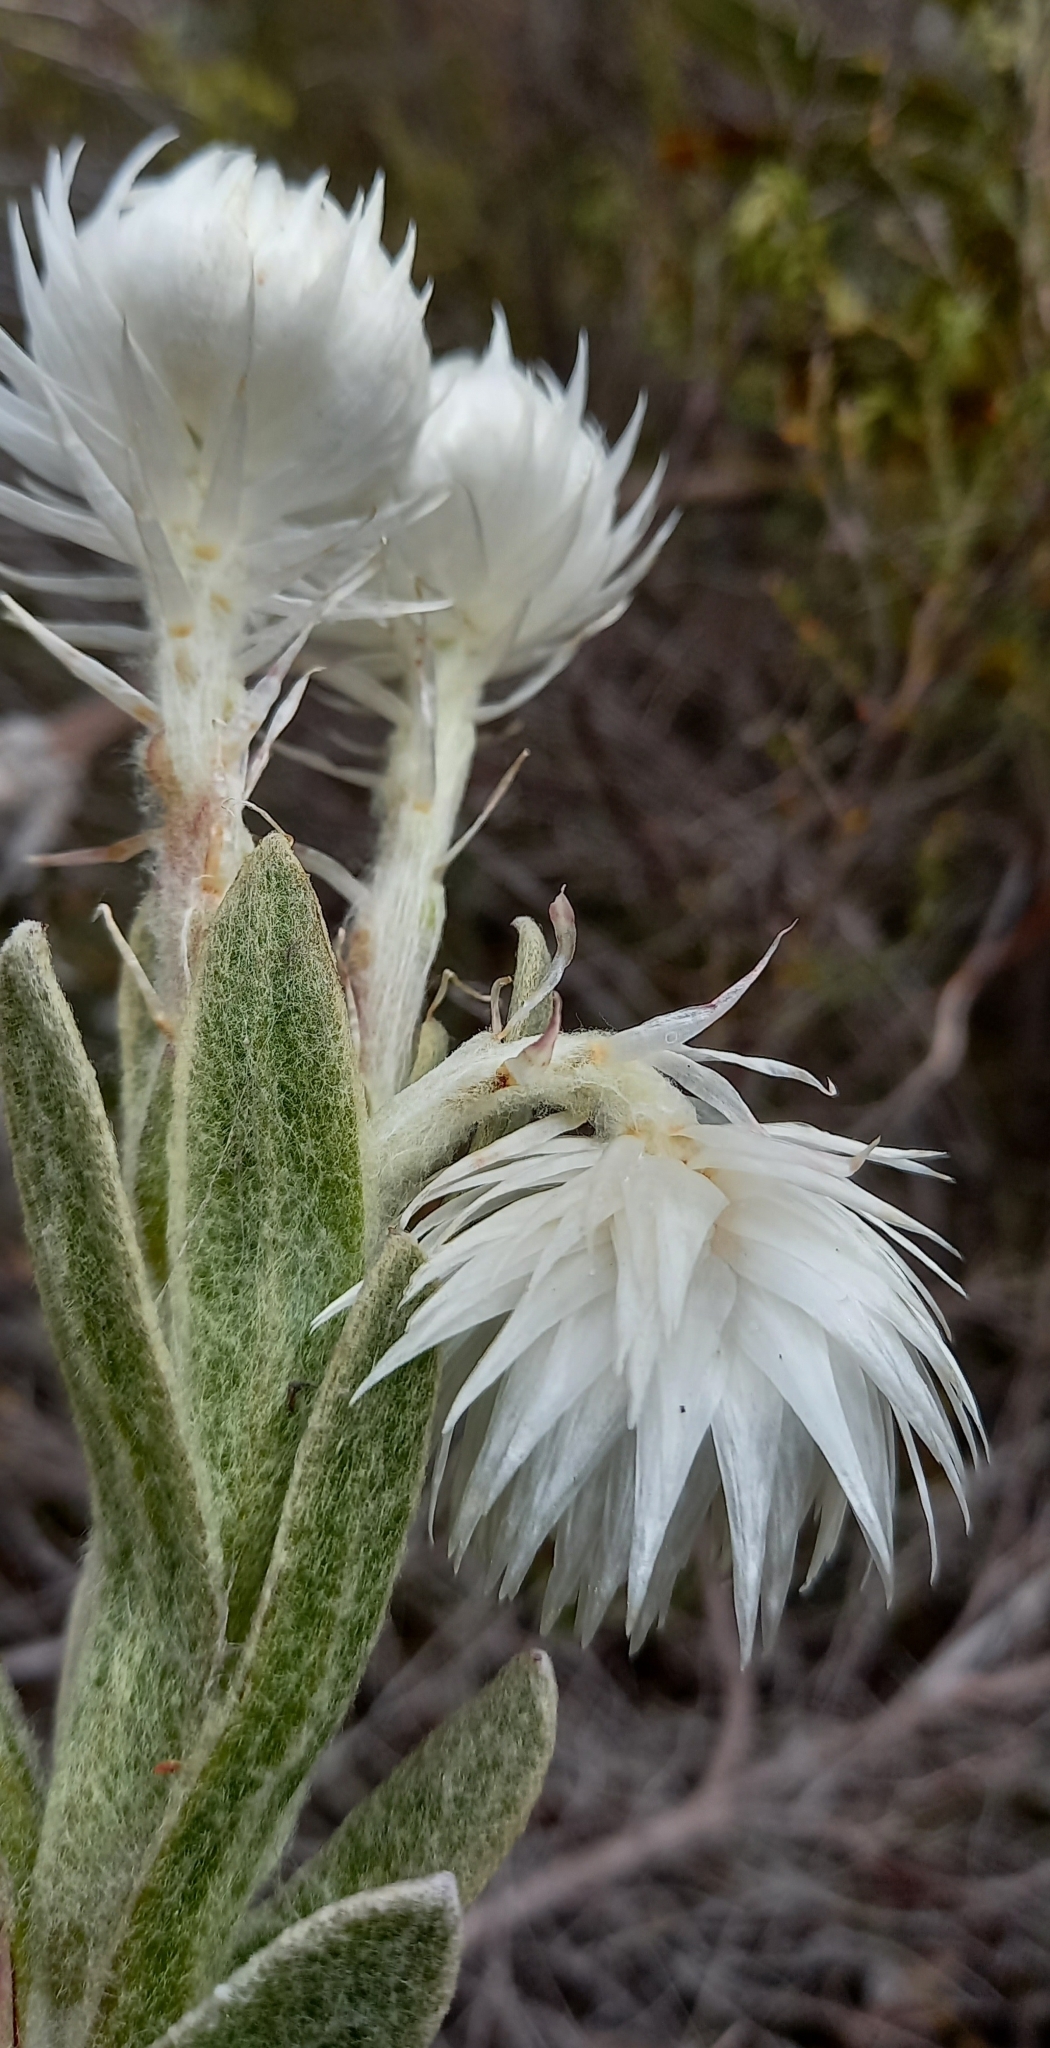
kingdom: Plantae
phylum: Tracheophyta
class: Magnoliopsida
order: Asterales
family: Asteraceae
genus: Syncarpha
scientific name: Syncarpha vestita
